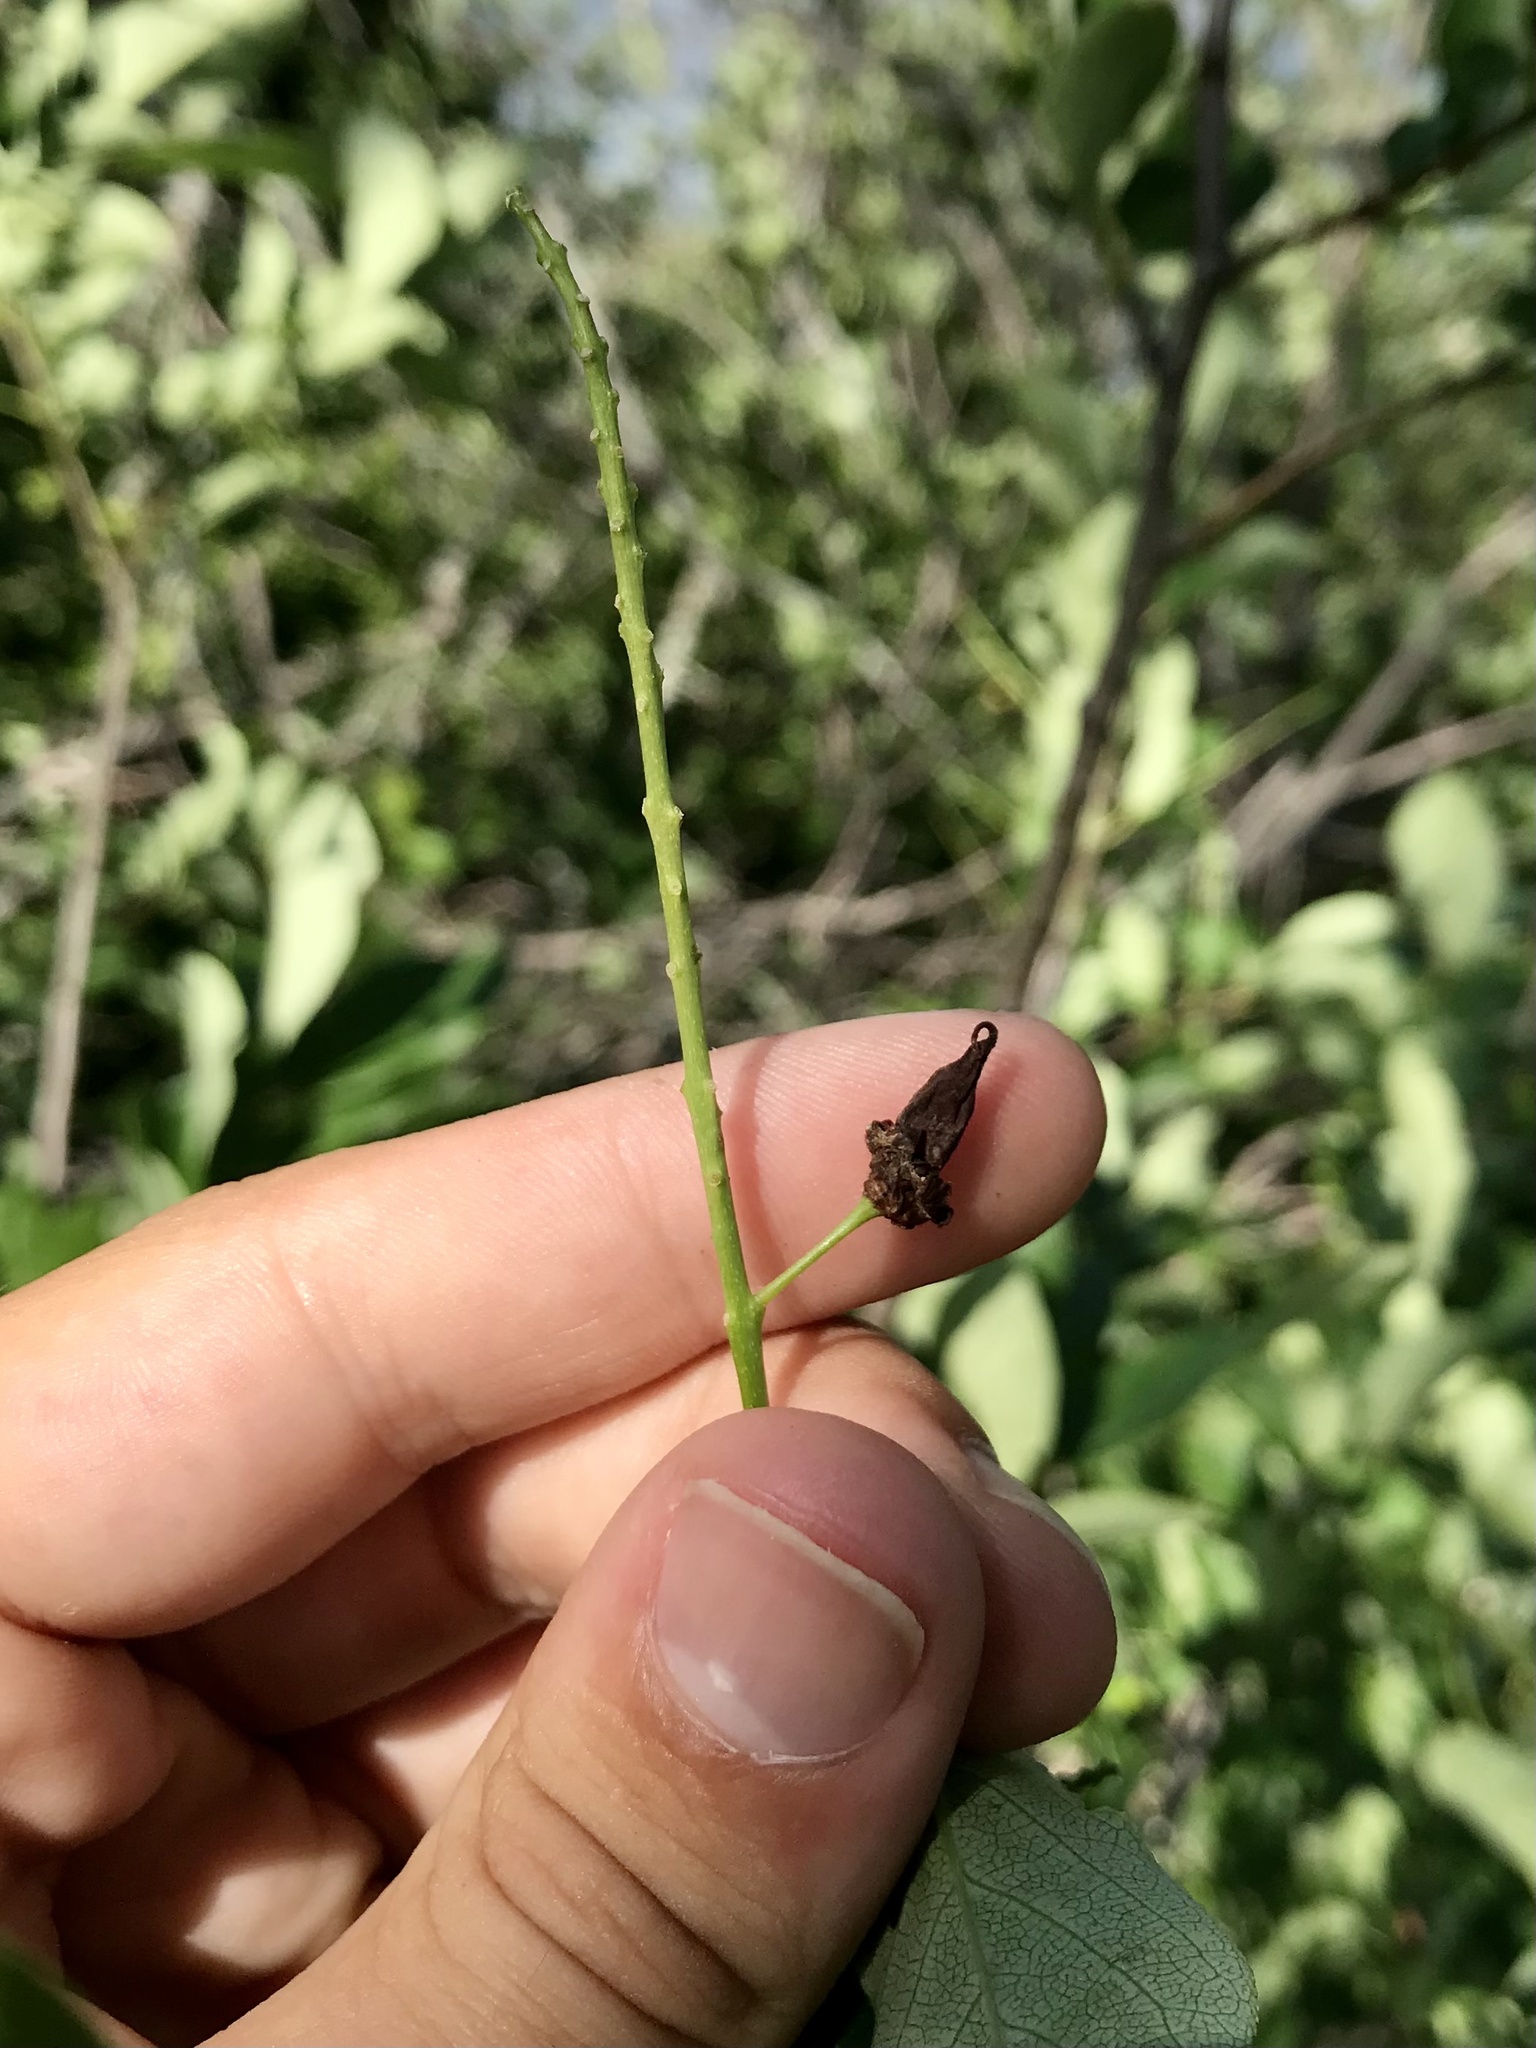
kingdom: Fungi
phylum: Ascomycota
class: Taphrinomycetes
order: Taphrinales
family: Taphrinaceae
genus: Taphrina
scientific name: Taphrina confusa
